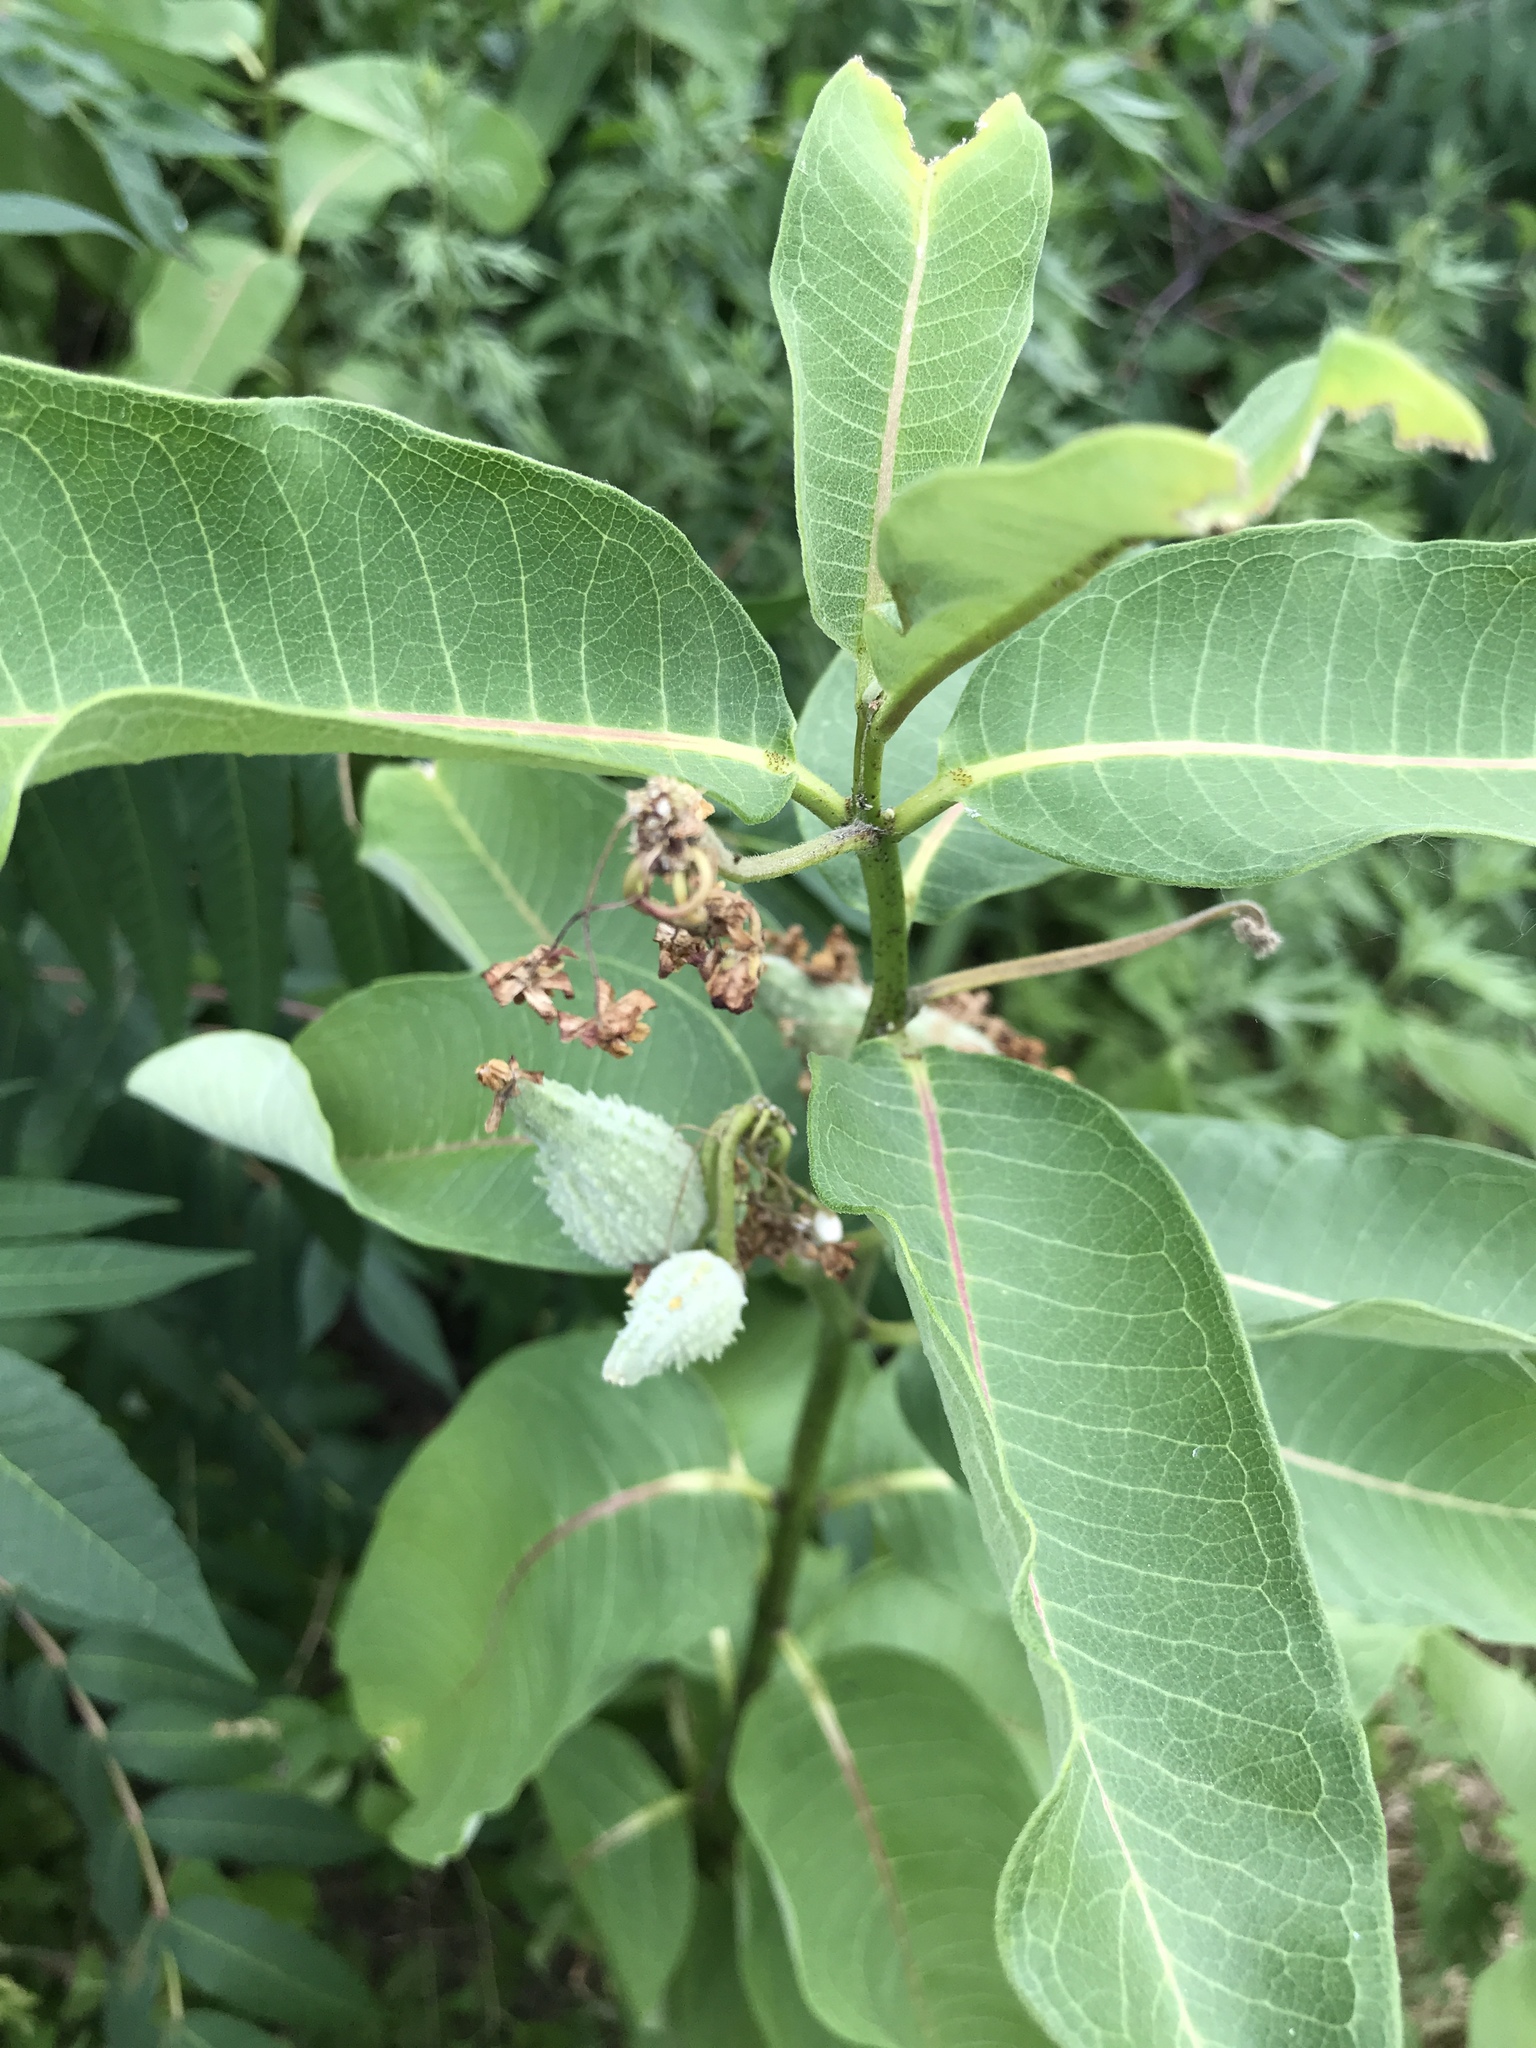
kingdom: Plantae
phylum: Tracheophyta
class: Magnoliopsida
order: Gentianales
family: Apocynaceae
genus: Asclepias
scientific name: Asclepias syriaca
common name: Common milkweed
